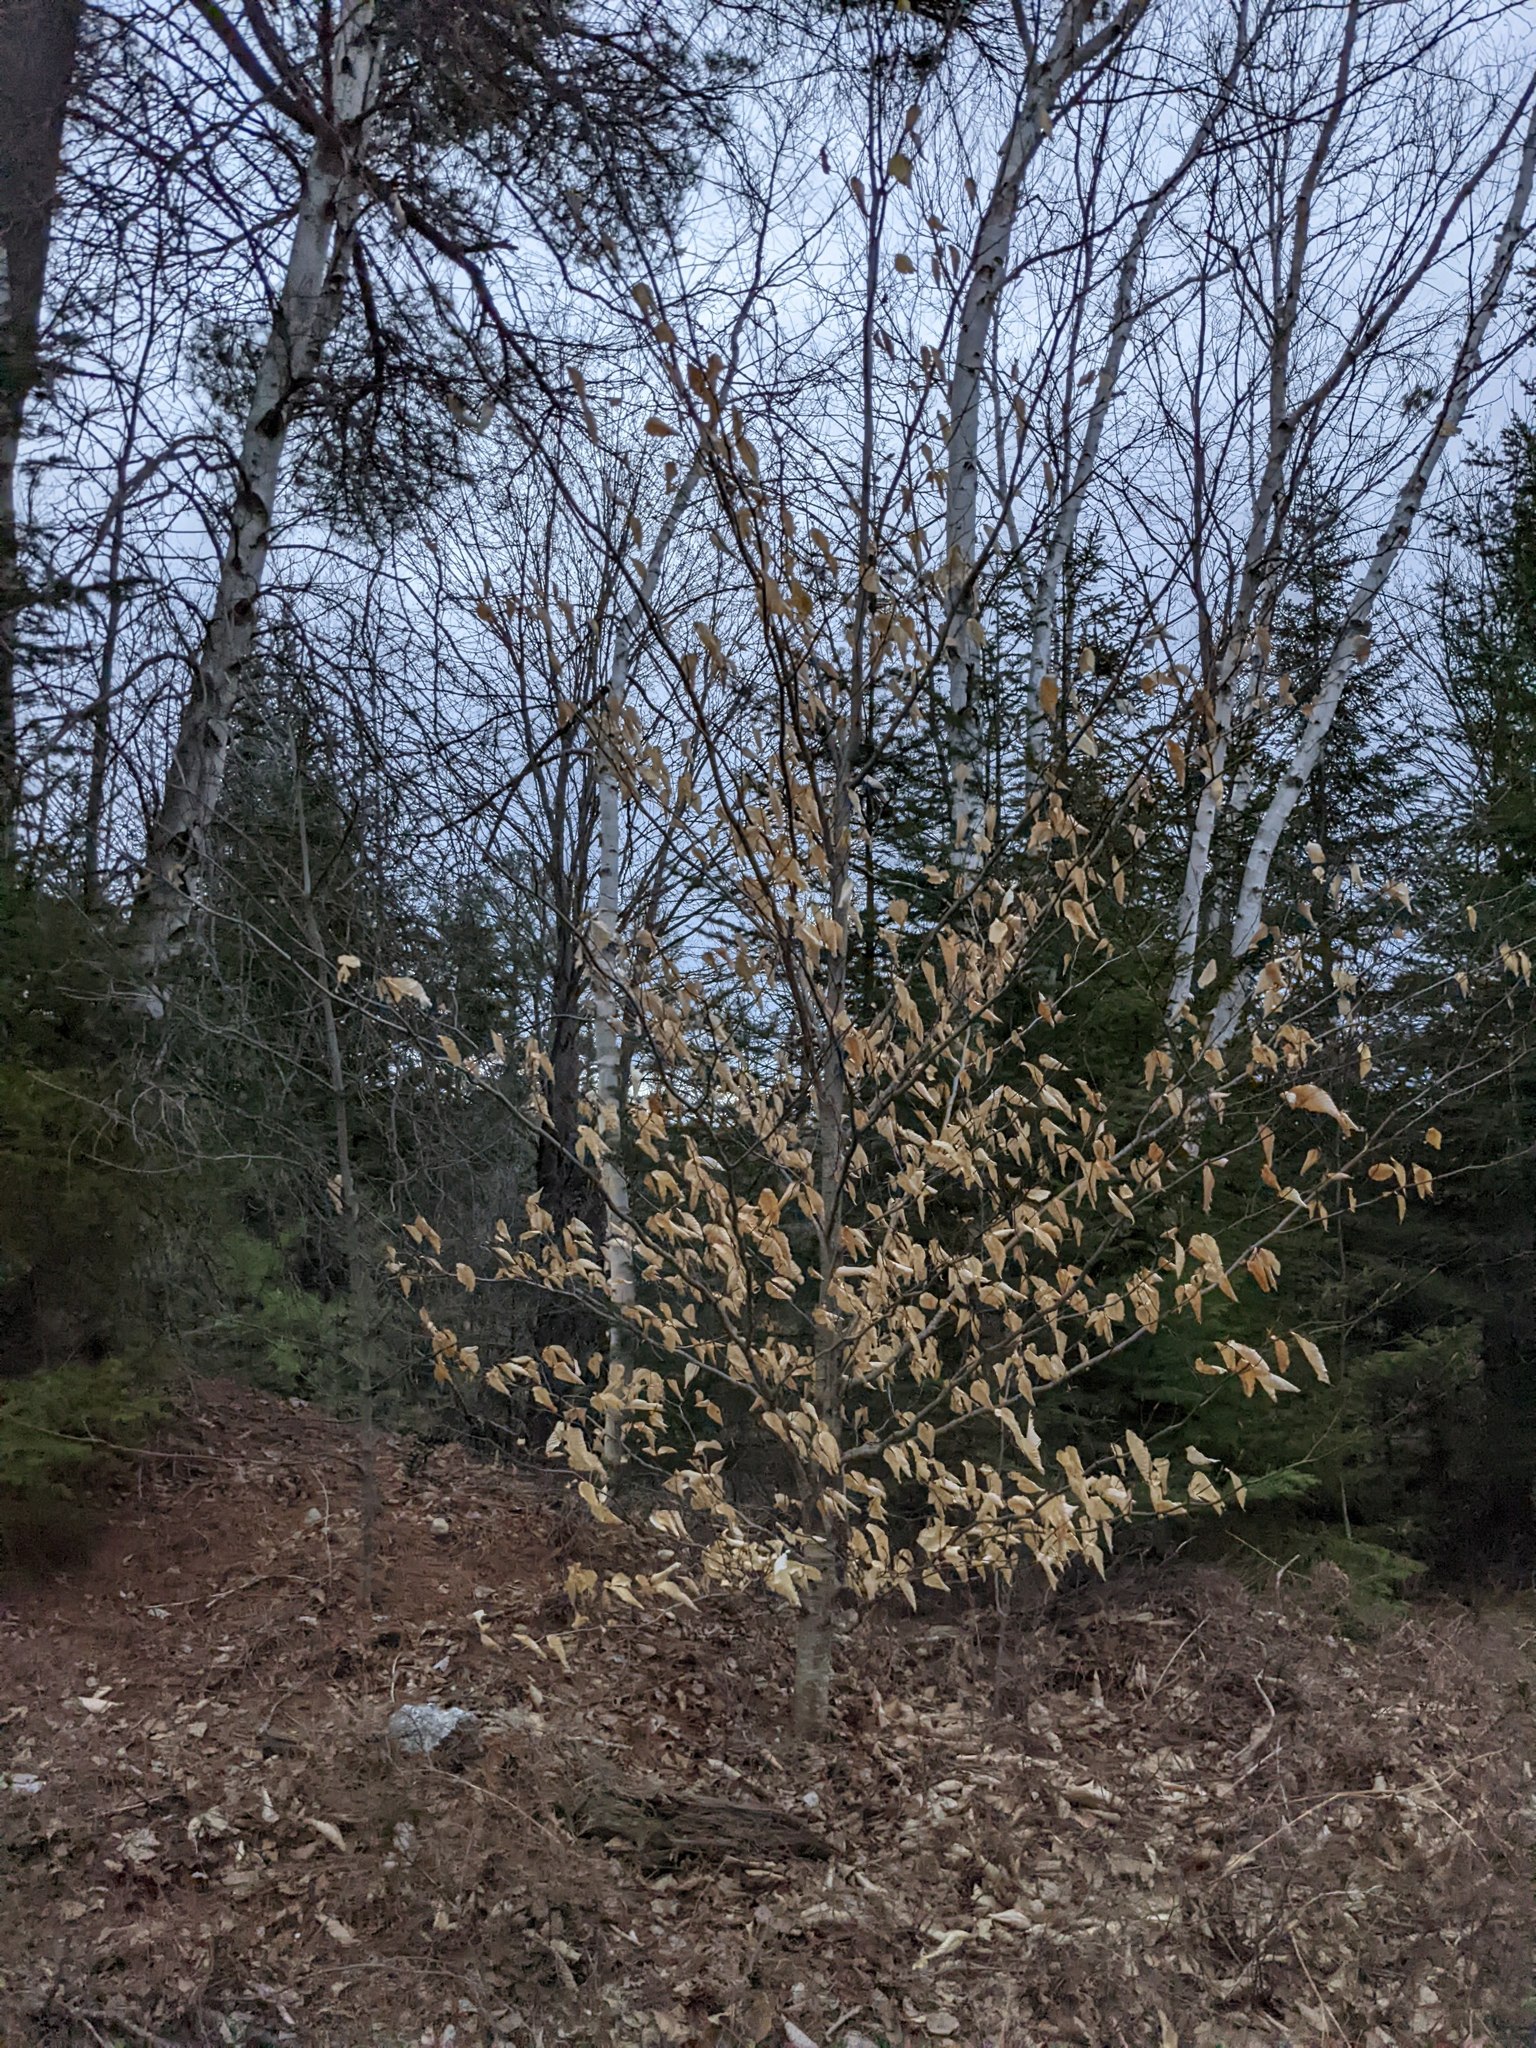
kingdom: Plantae
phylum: Tracheophyta
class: Magnoliopsida
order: Fagales
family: Fagaceae
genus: Fagus
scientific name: Fagus grandifolia
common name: American beech
